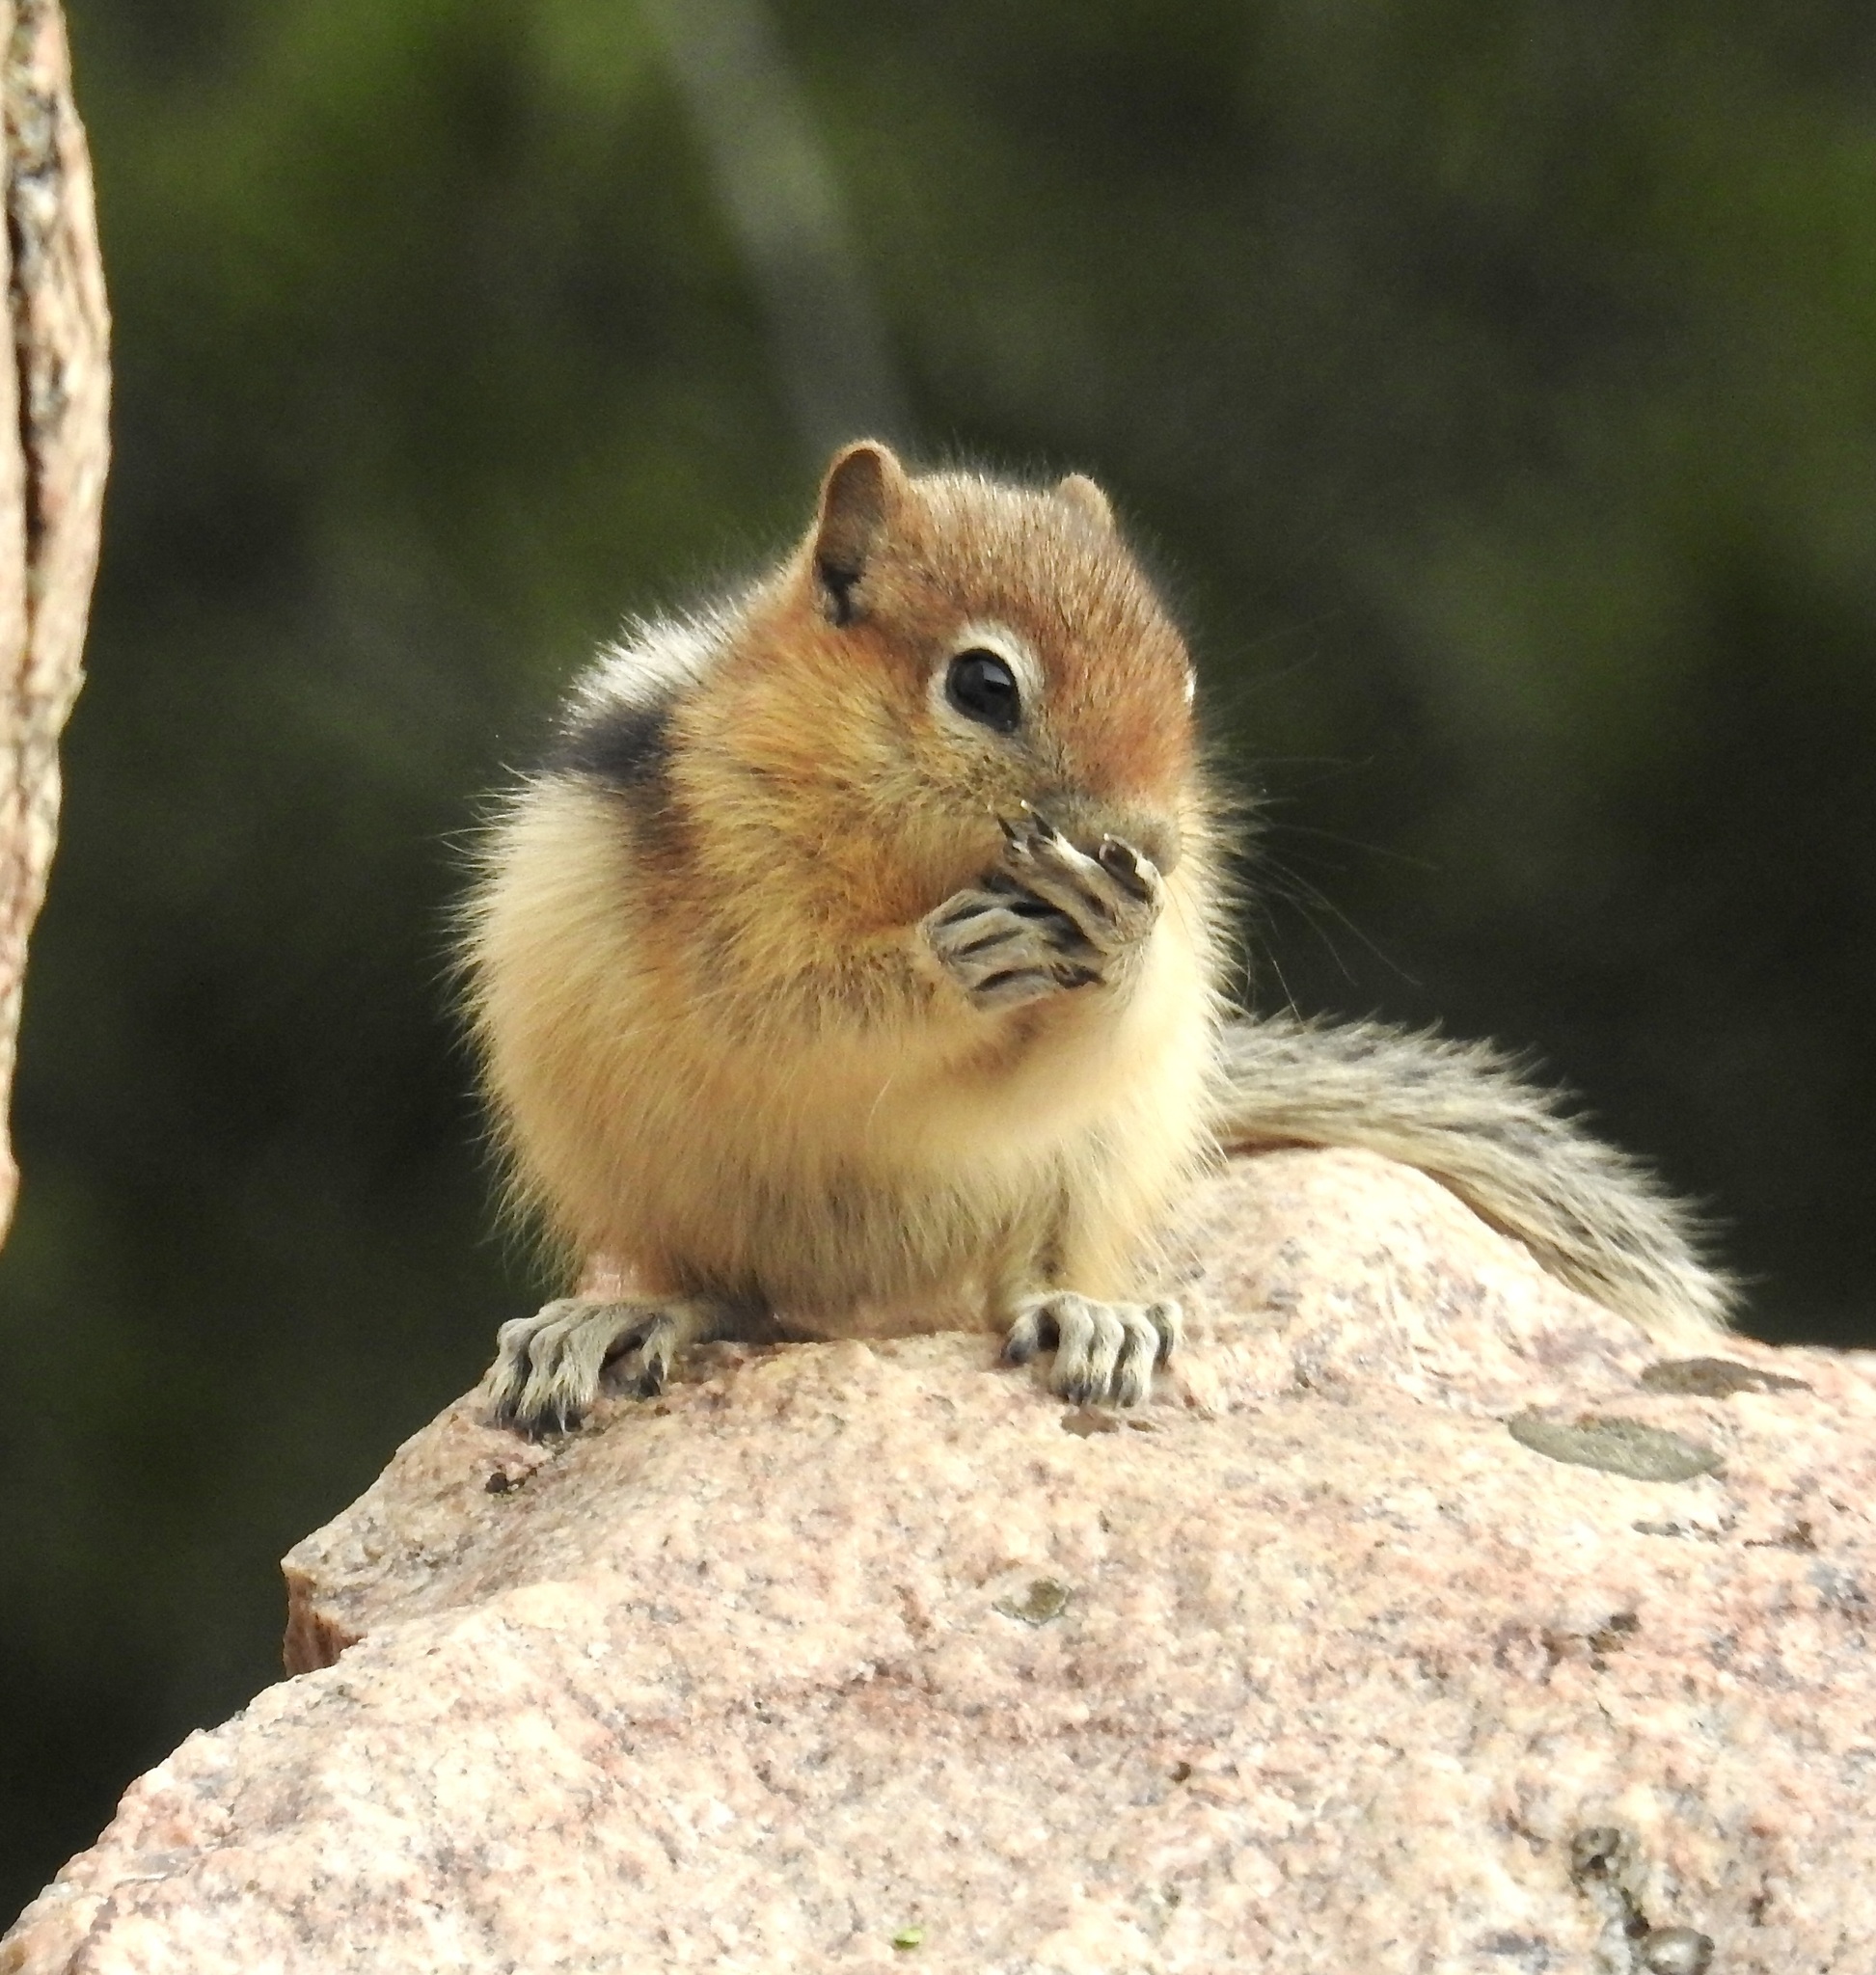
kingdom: Animalia
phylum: Chordata
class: Mammalia
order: Rodentia
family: Sciuridae
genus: Callospermophilus
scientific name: Callospermophilus lateralis
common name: Golden-mantled ground squirrel
